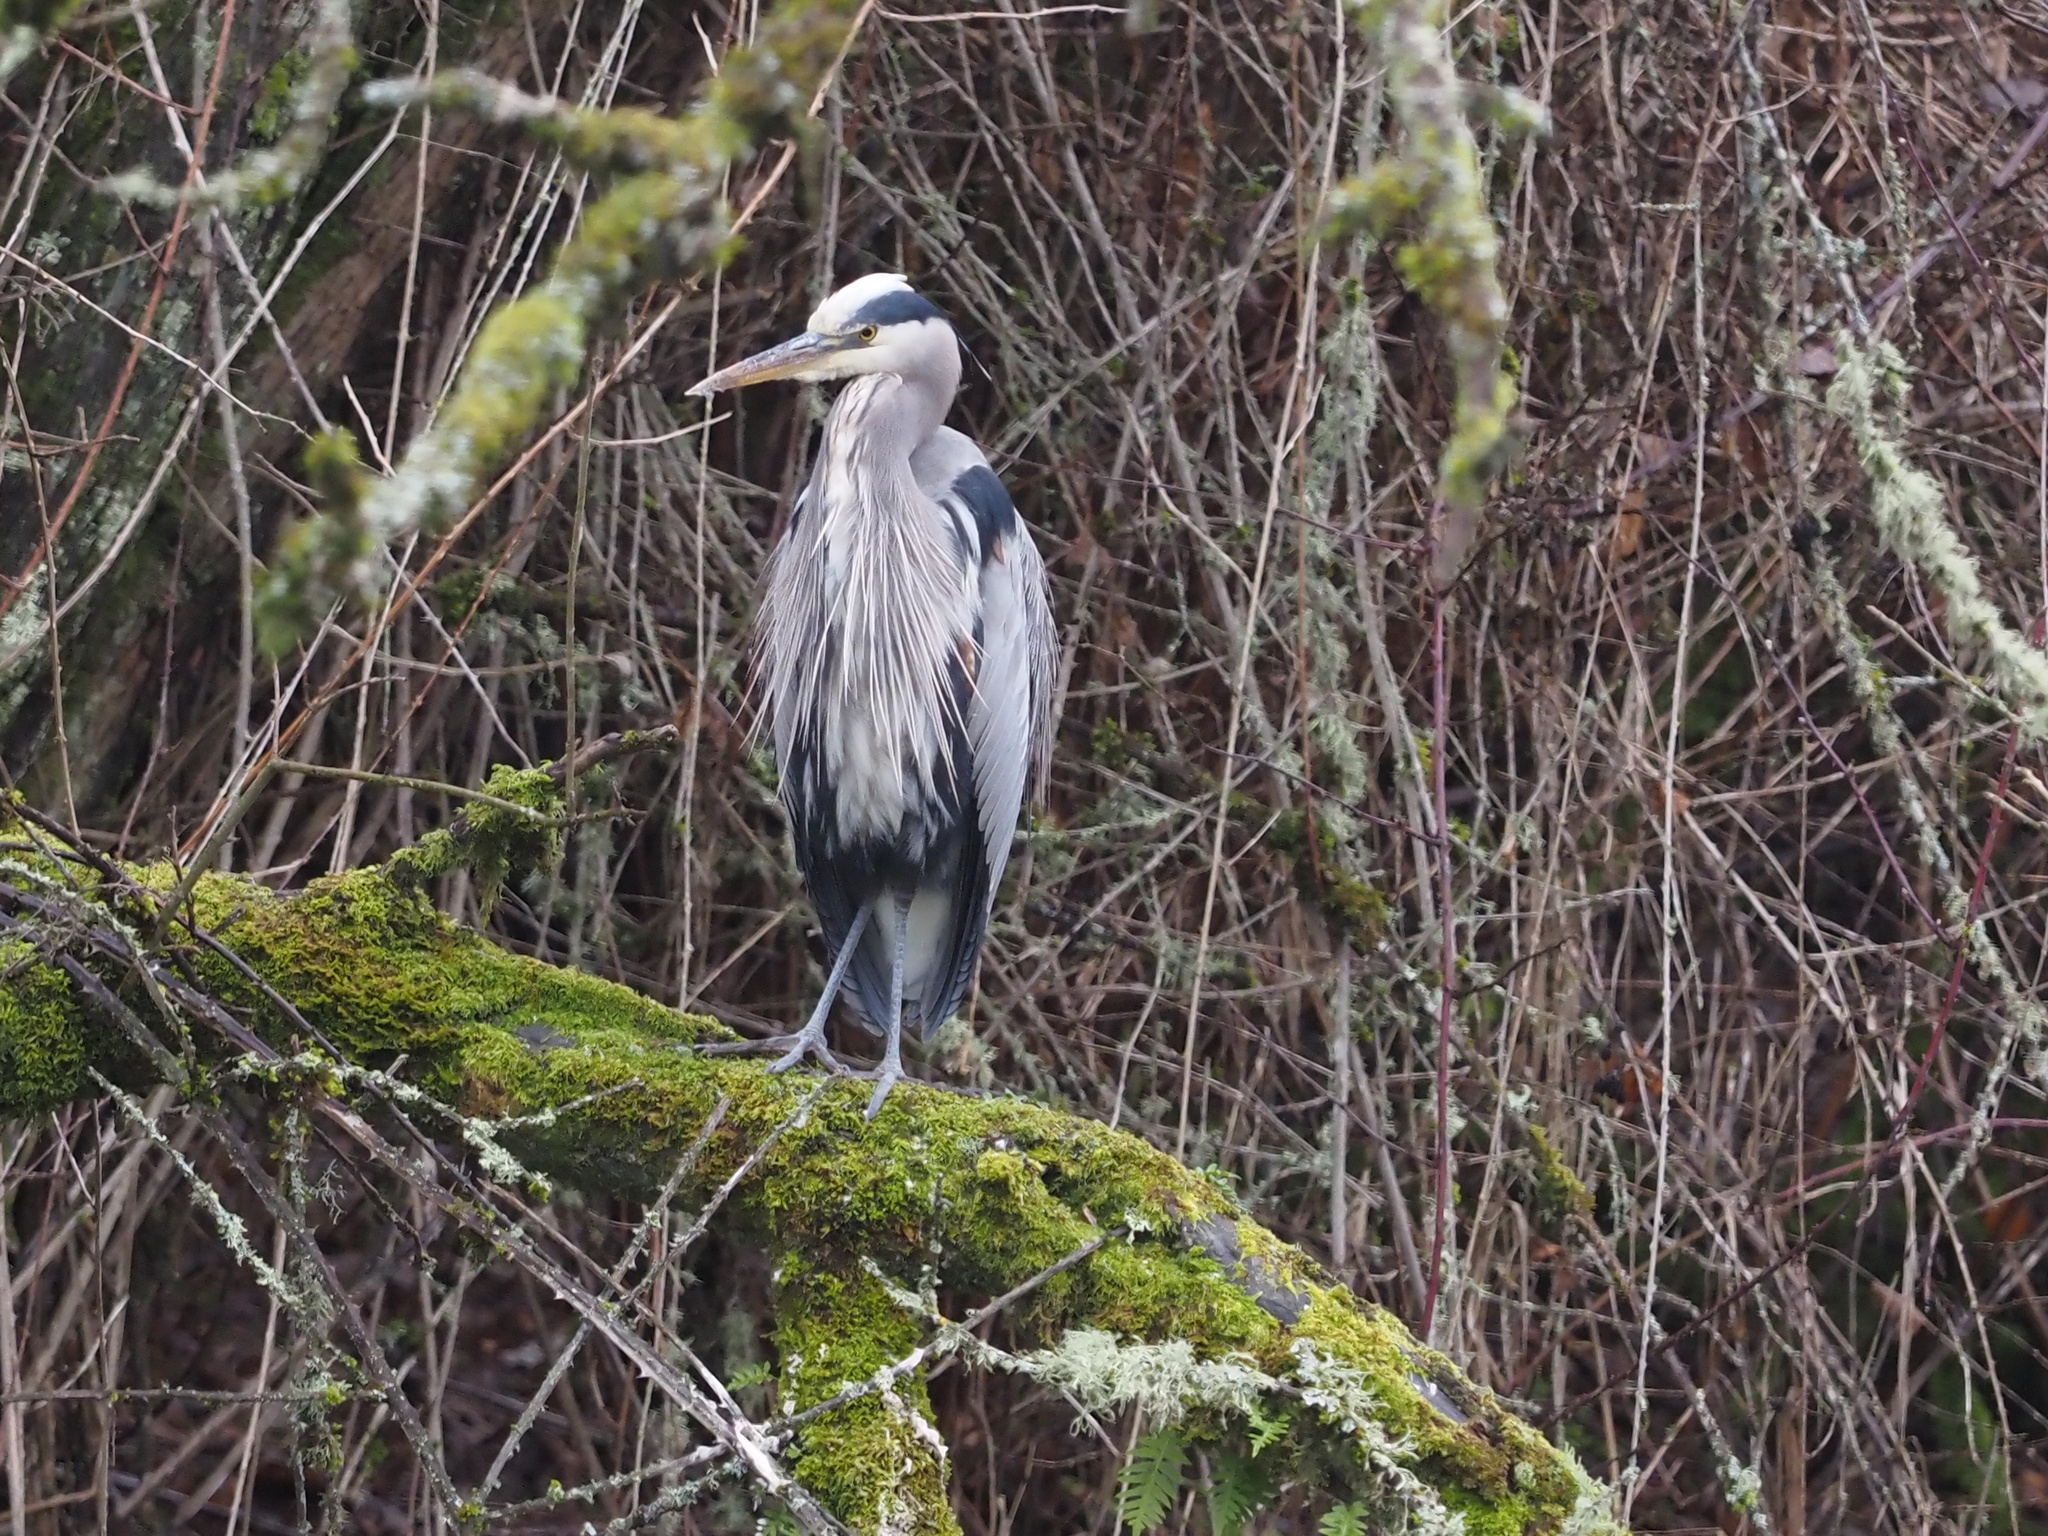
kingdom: Animalia
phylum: Chordata
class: Aves
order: Pelecaniformes
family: Ardeidae
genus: Ardea
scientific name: Ardea herodias
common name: Great blue heron
